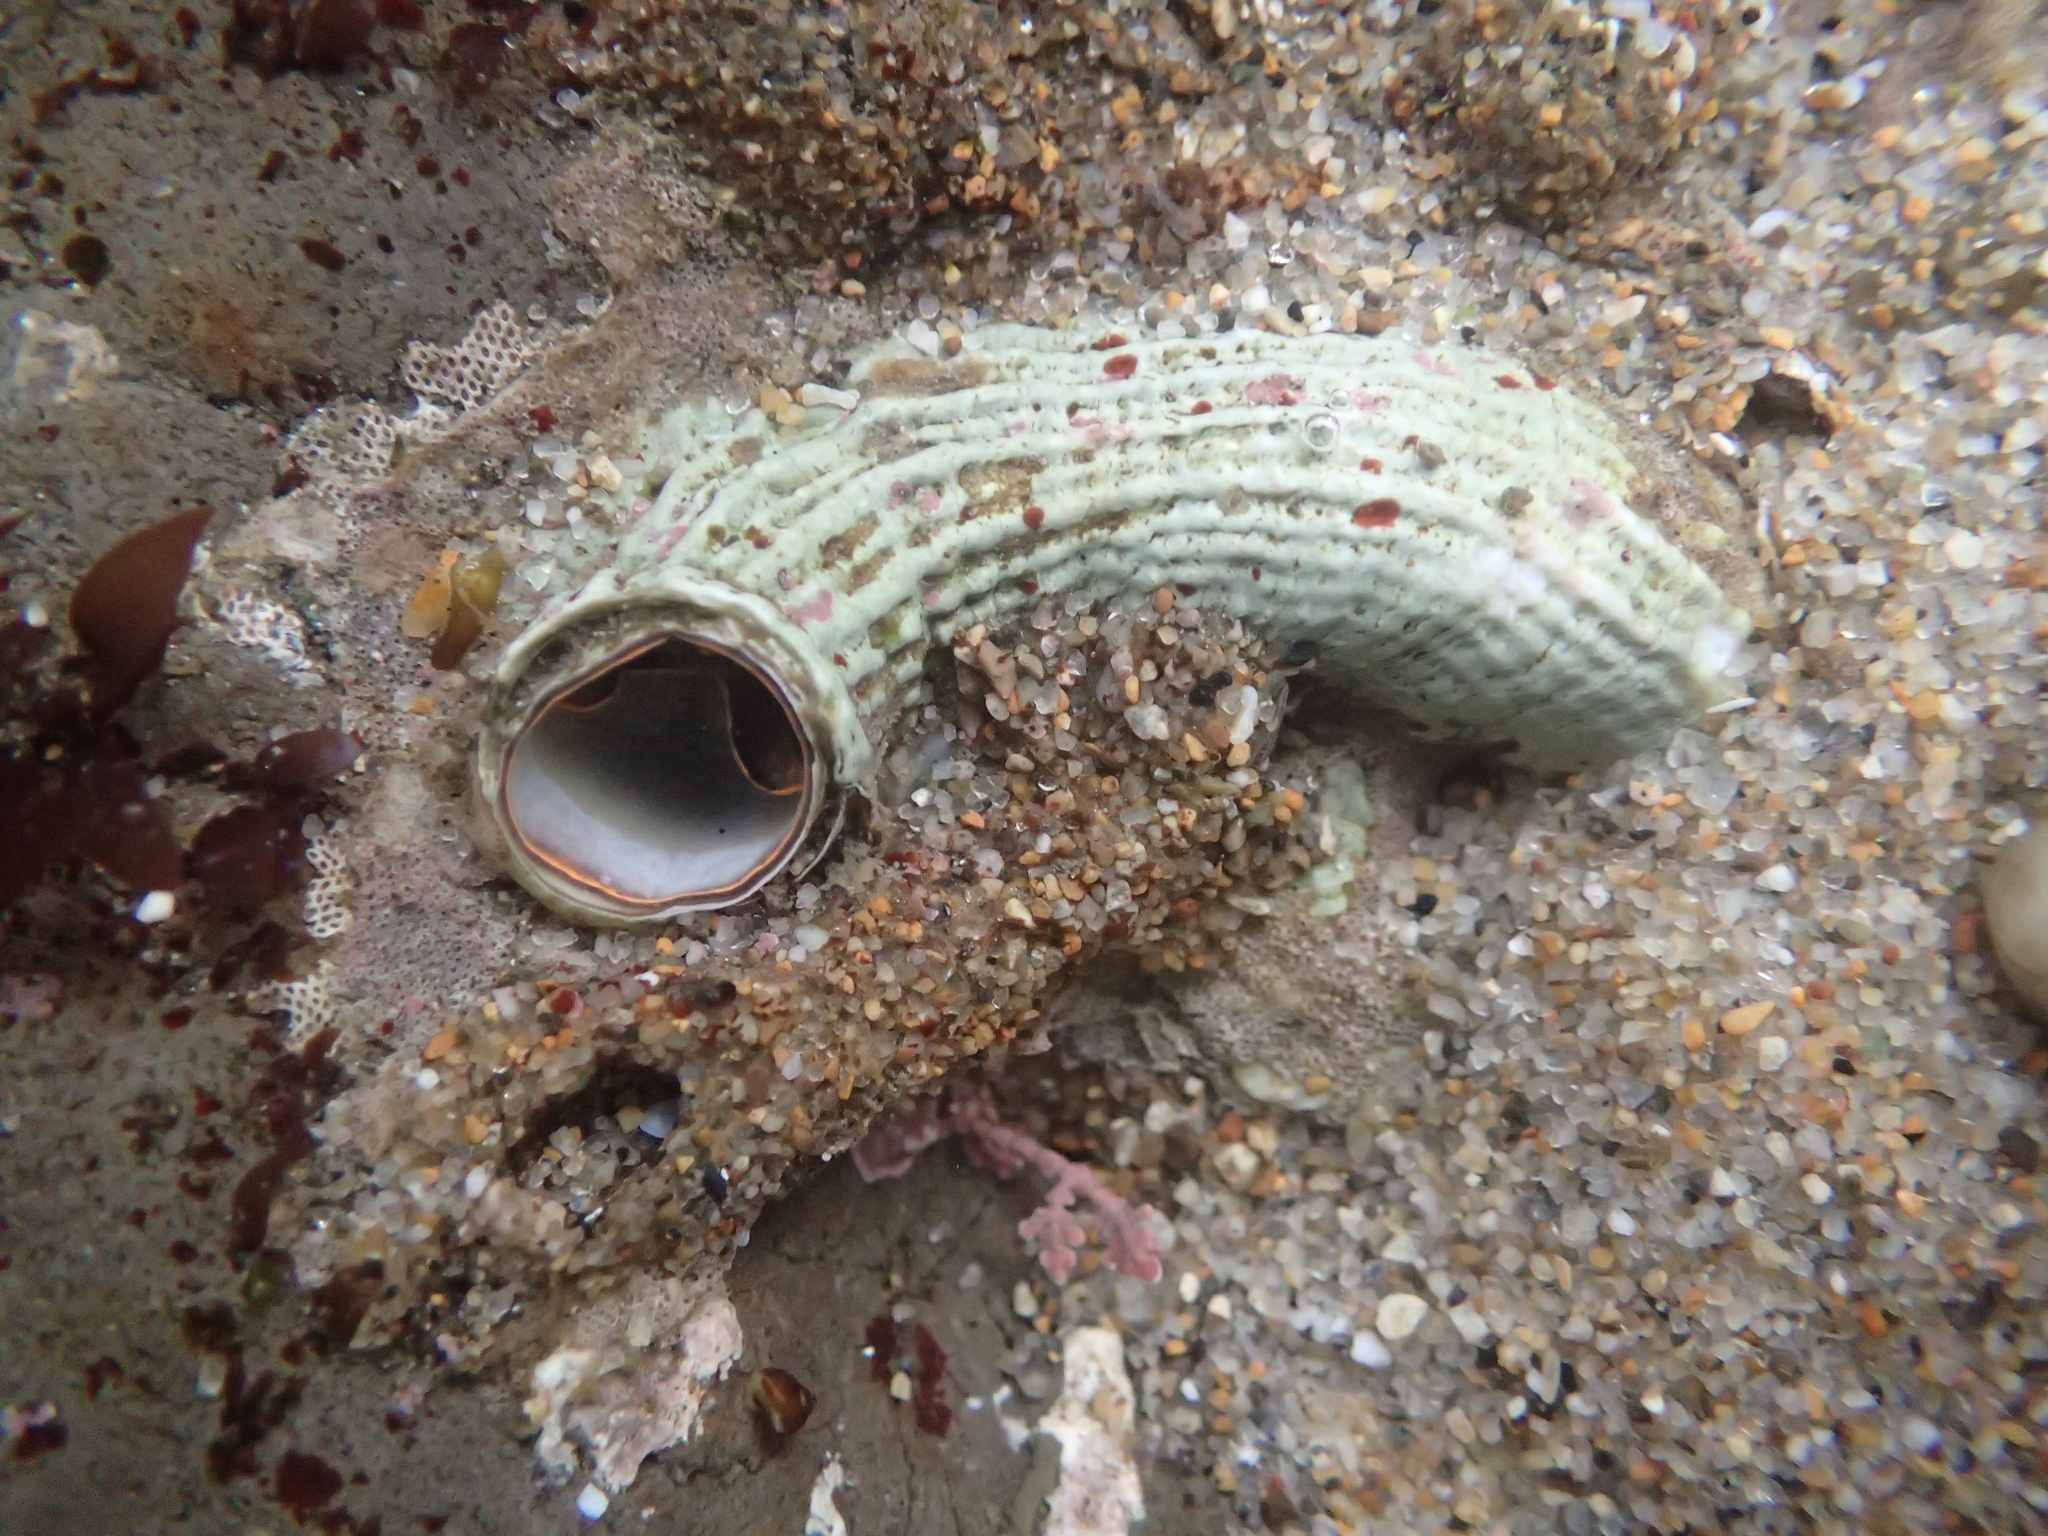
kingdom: Animalia
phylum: Mollusca
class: Gastropoda
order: Littorinimorpha
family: Vermetidae
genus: Thylacodes
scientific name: Thylacodes squamigerus
